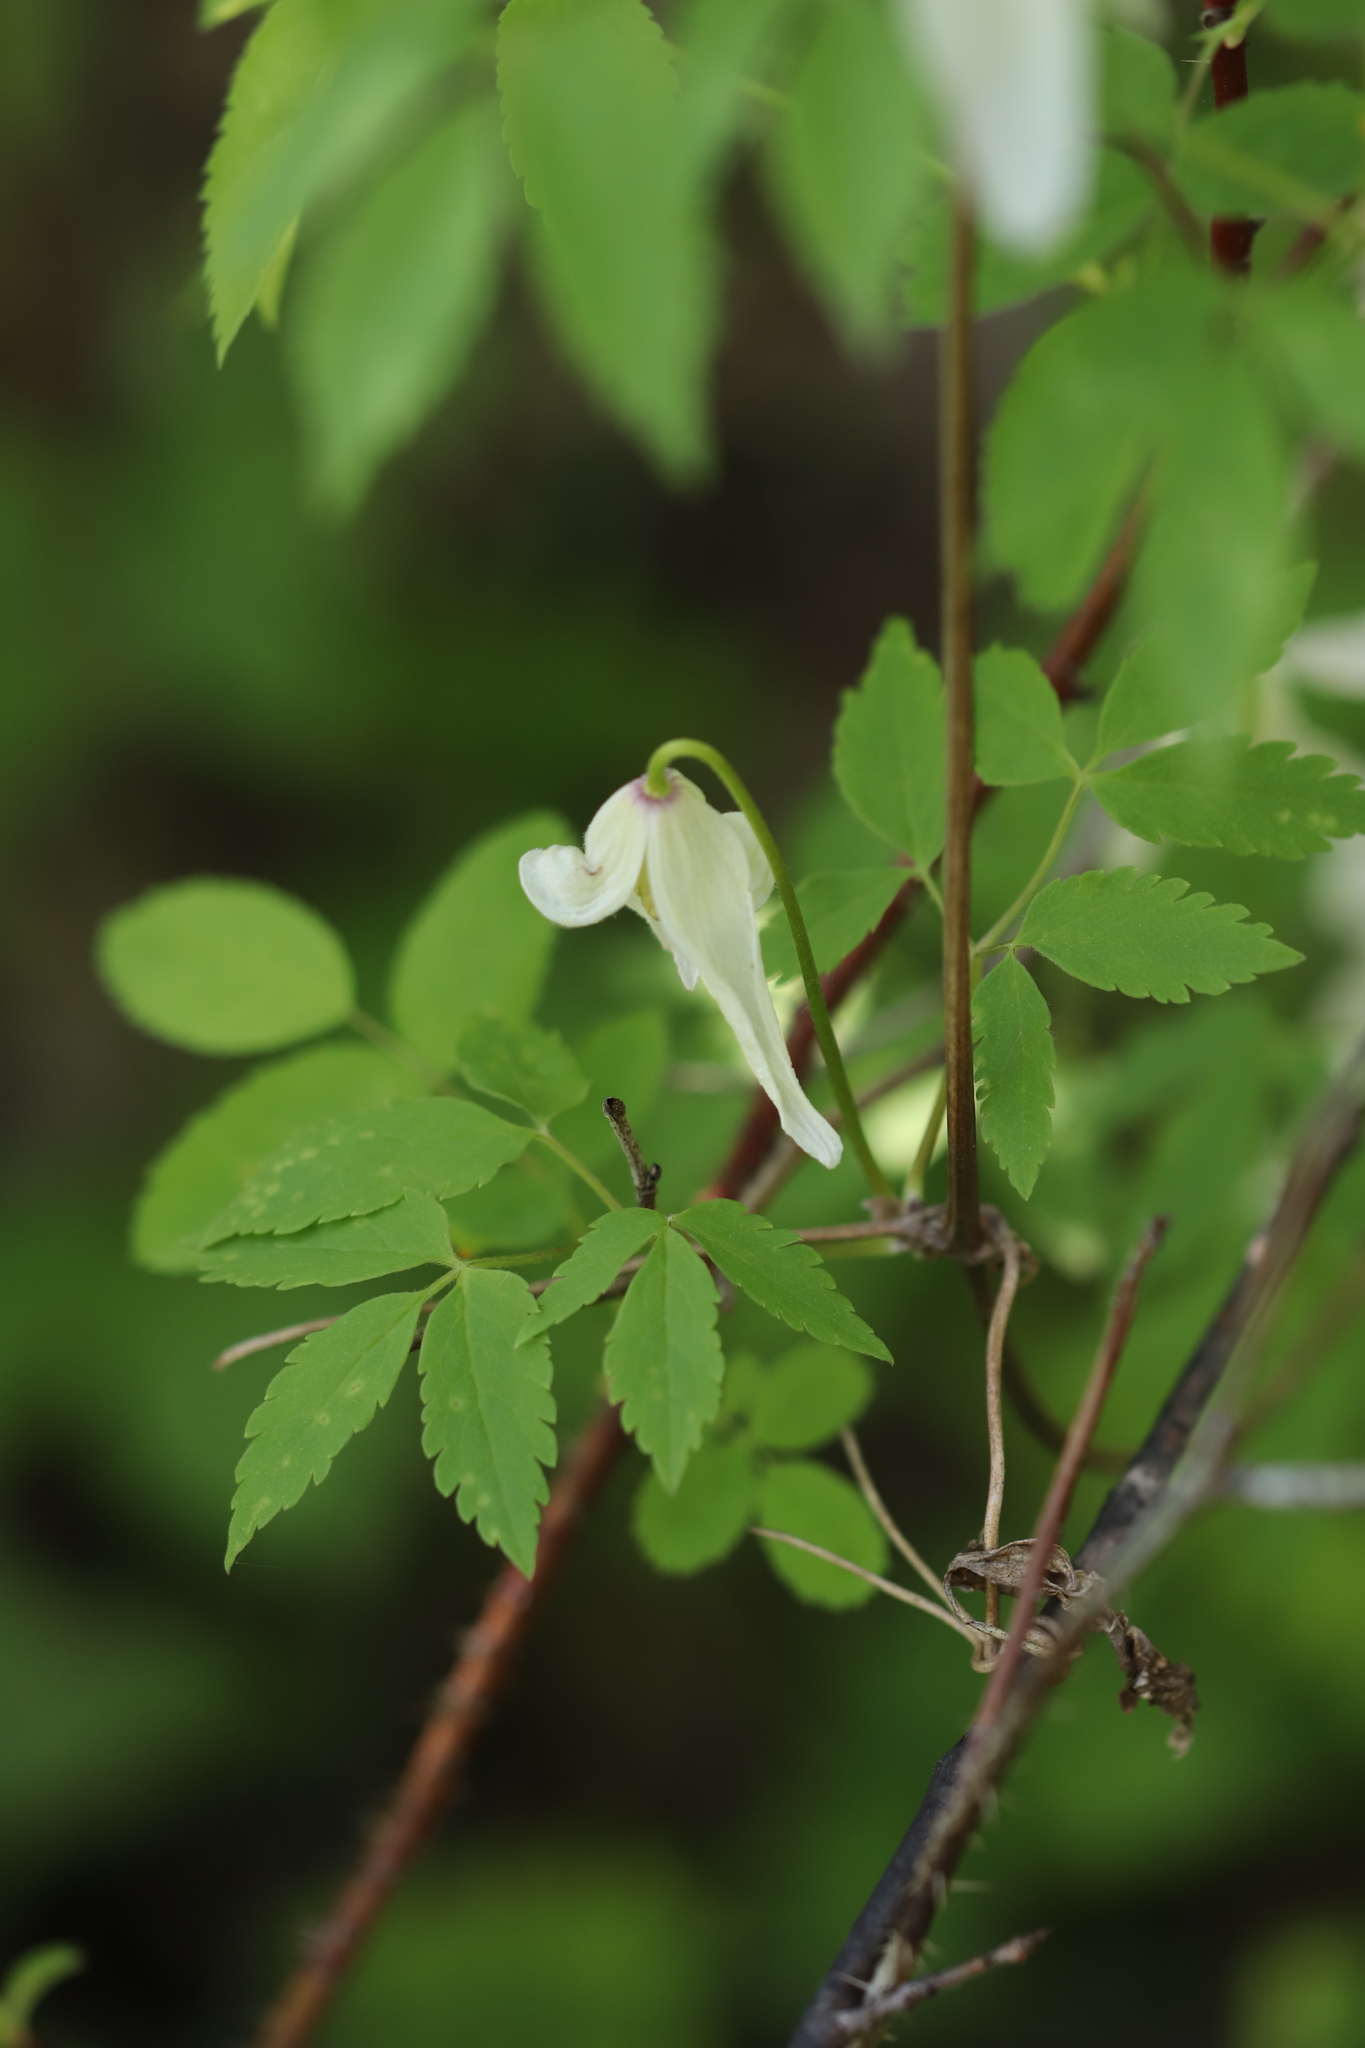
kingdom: Plantae
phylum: Tracheophyta
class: Magnoliopsida
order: Ranunculales
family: Ranunculaceae
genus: Clematis
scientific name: Clematis sibirica
